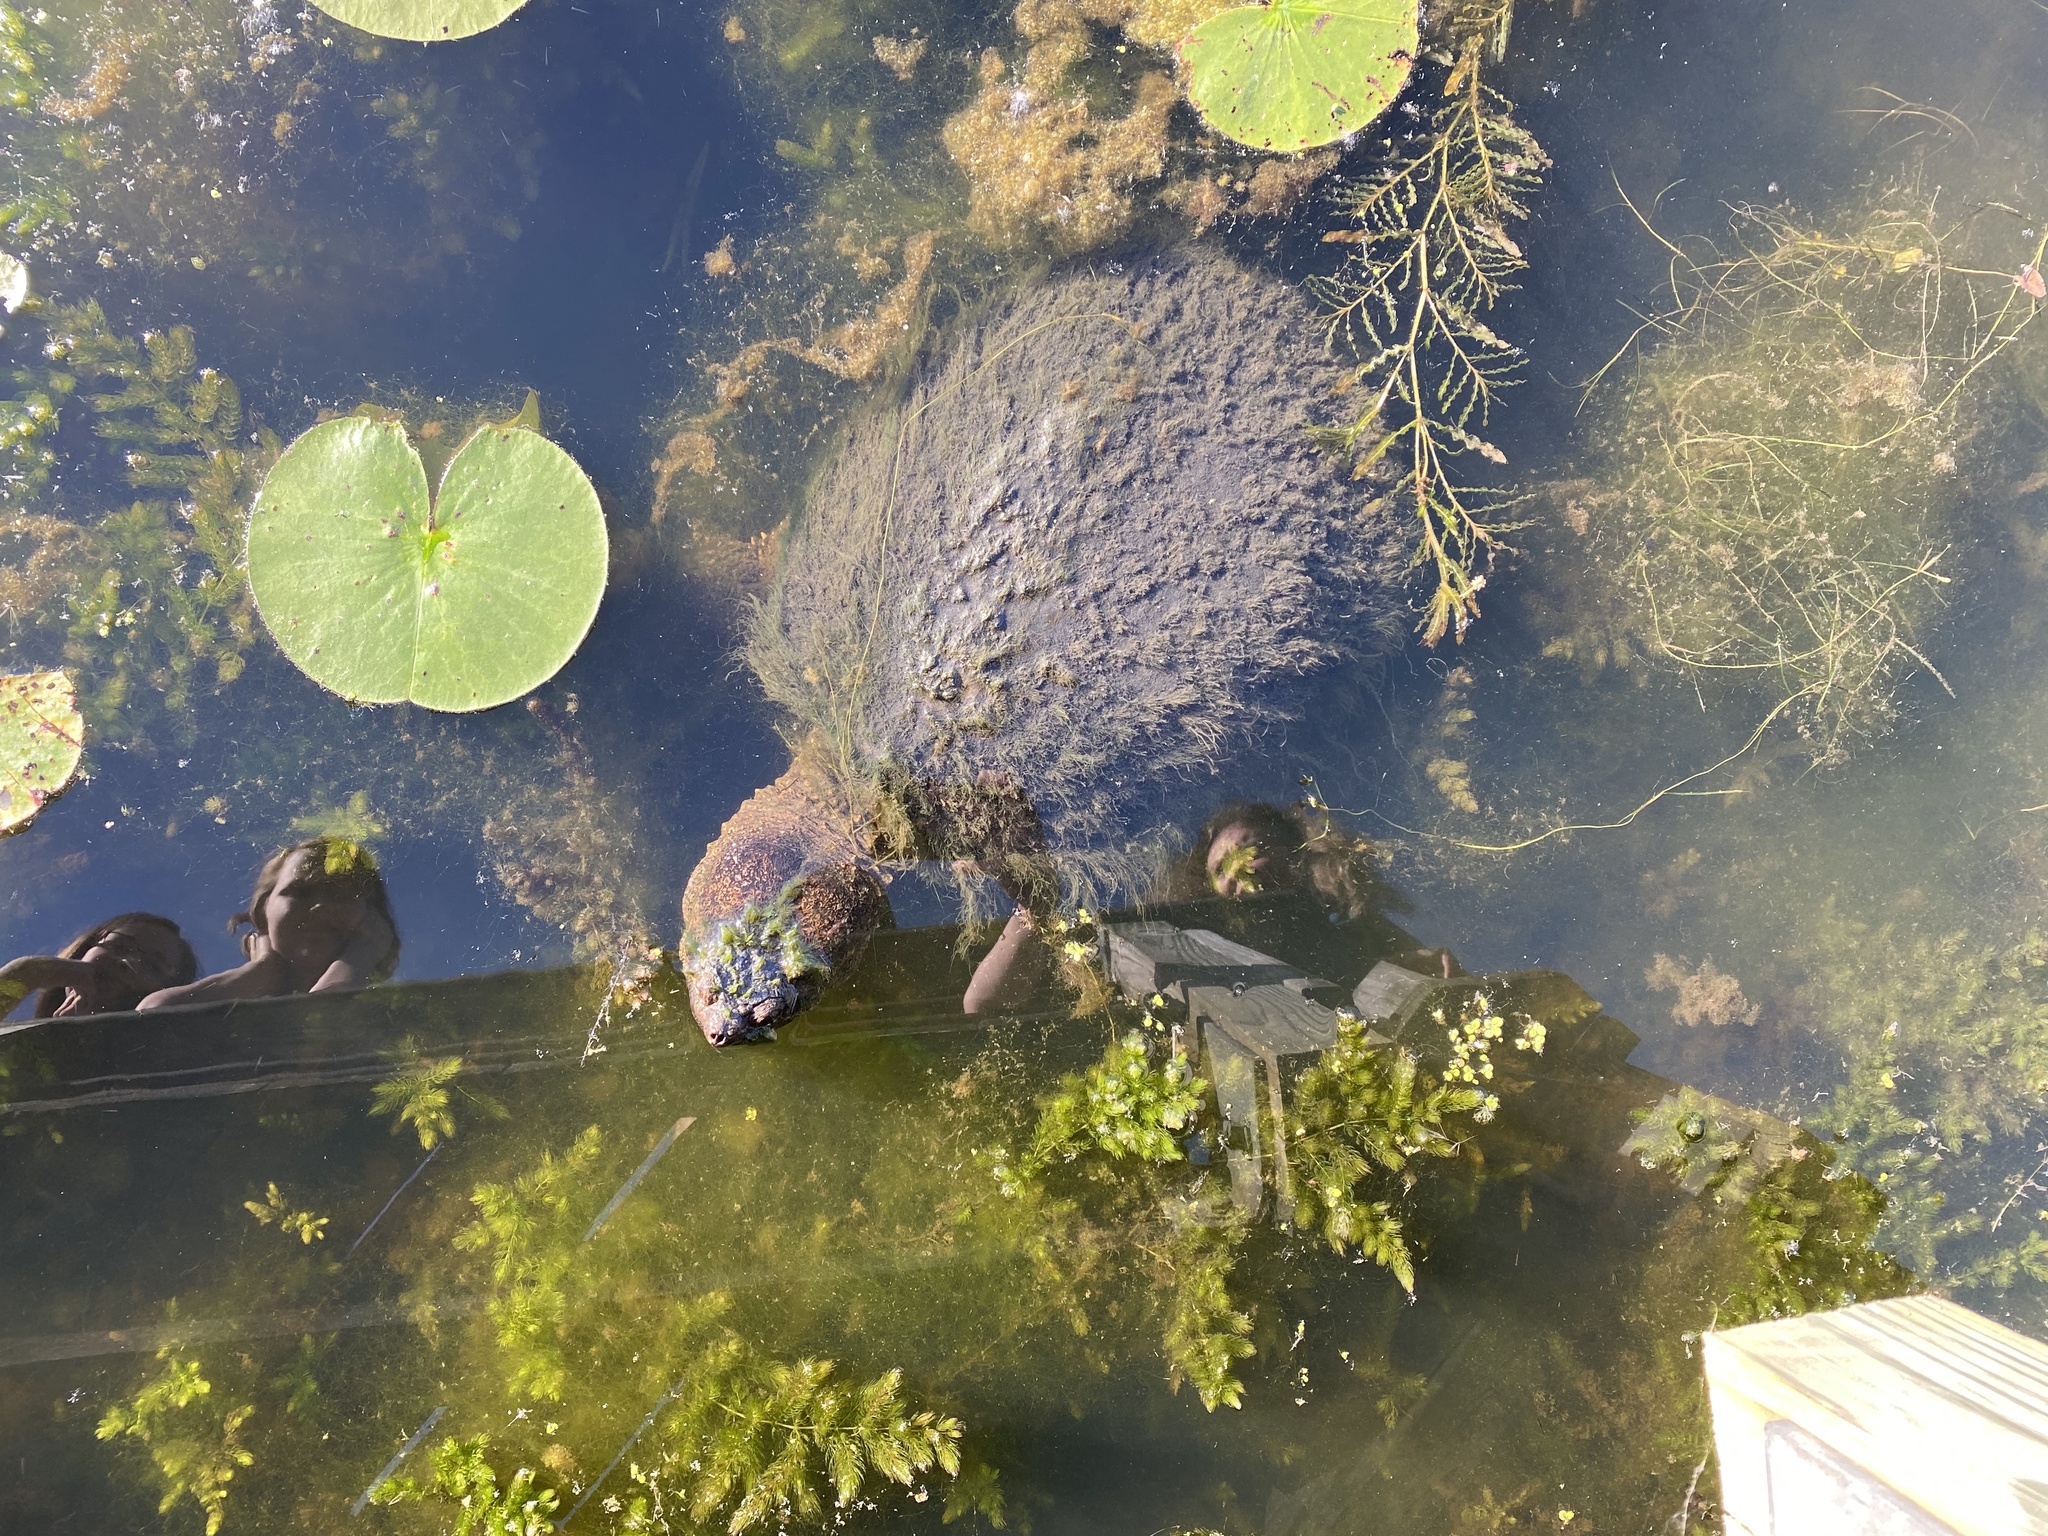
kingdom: Animalia
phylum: Chordata
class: Testudines
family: Chelydridae
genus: Chelydra
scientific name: Chelydra serpentina
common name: Common snapping turtle
